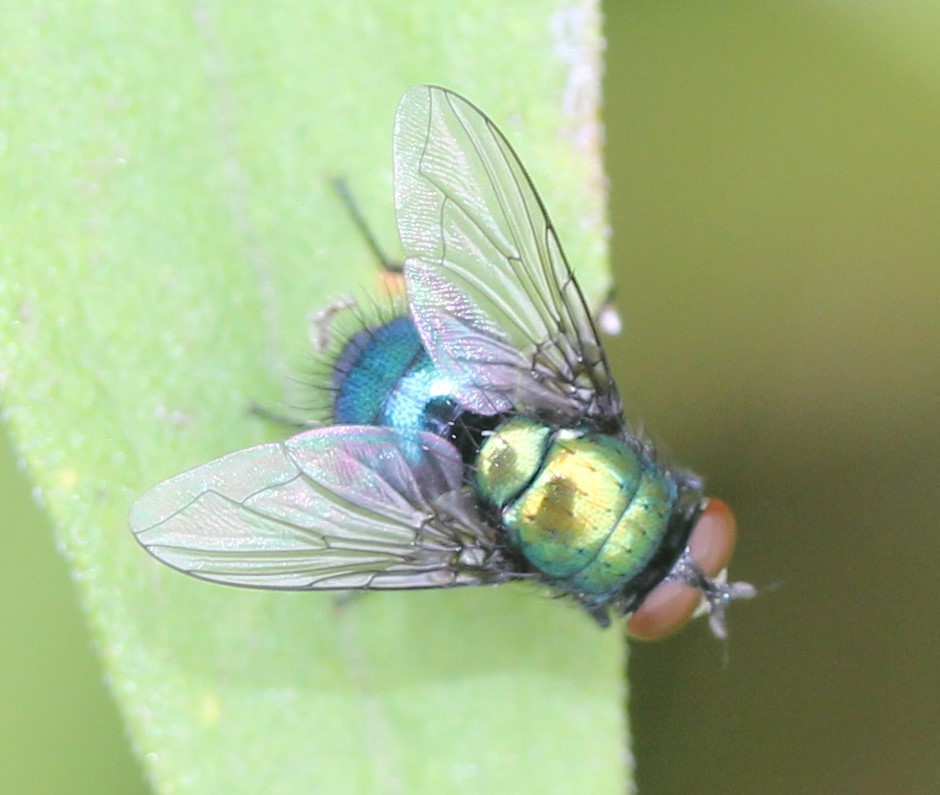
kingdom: Animalia
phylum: Arthropoda
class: Insecta
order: Diptera
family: Calliphoridae
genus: Lucilia
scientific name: Lucilia silvarum
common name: Marsh greenbottle
